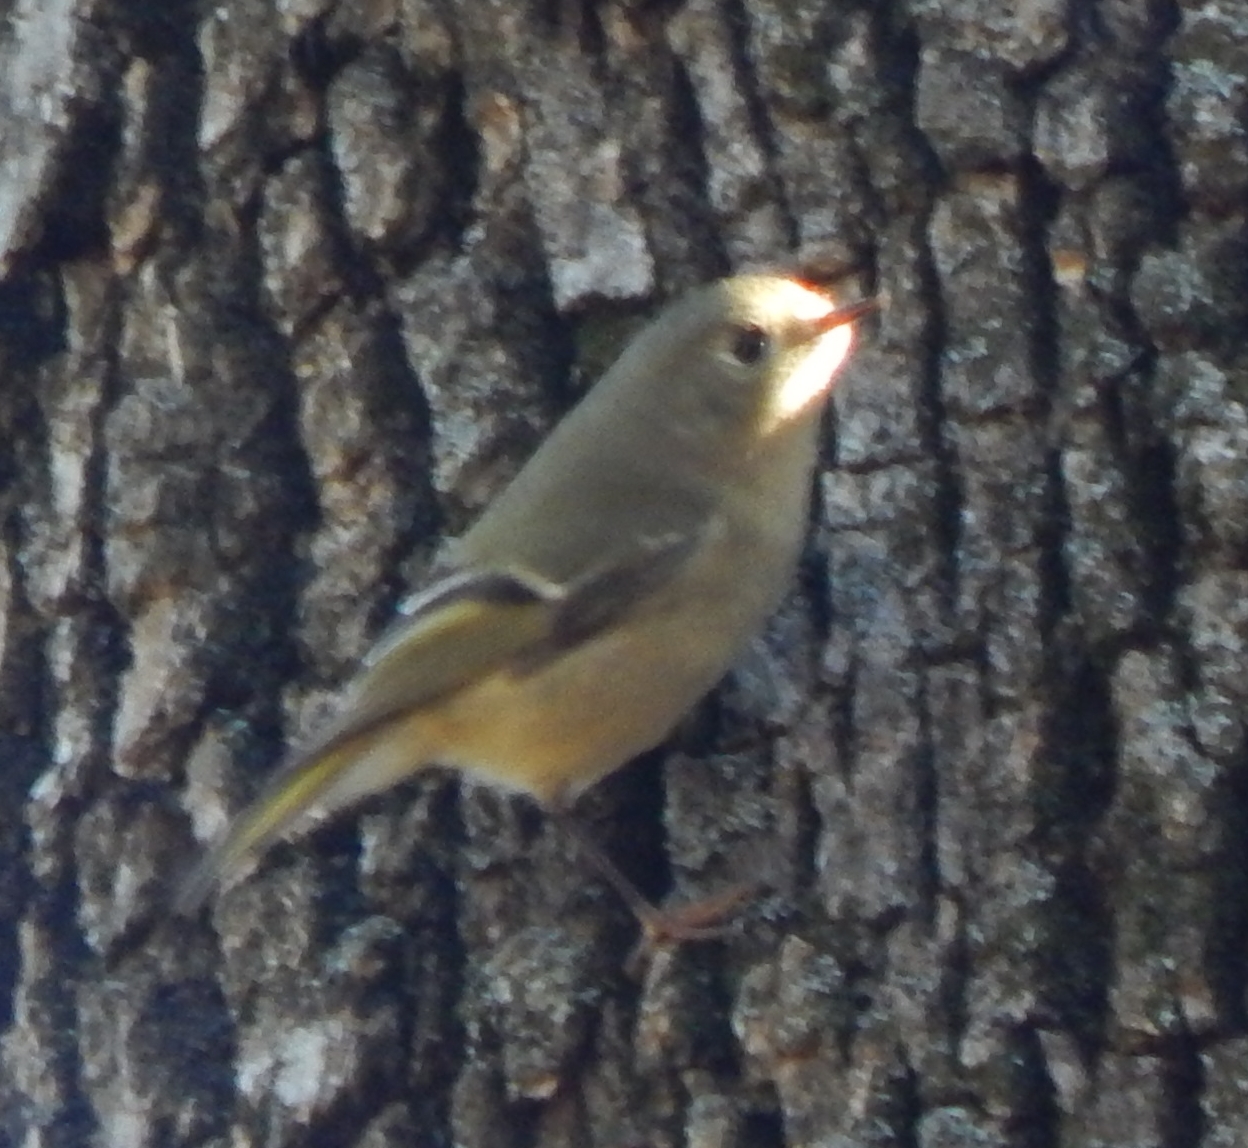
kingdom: Animalia
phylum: Chordata
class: Aves
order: Passeriformes
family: Regulidae
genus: Regulus
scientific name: Regulus calendula
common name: Ruby-crowned kinglet
